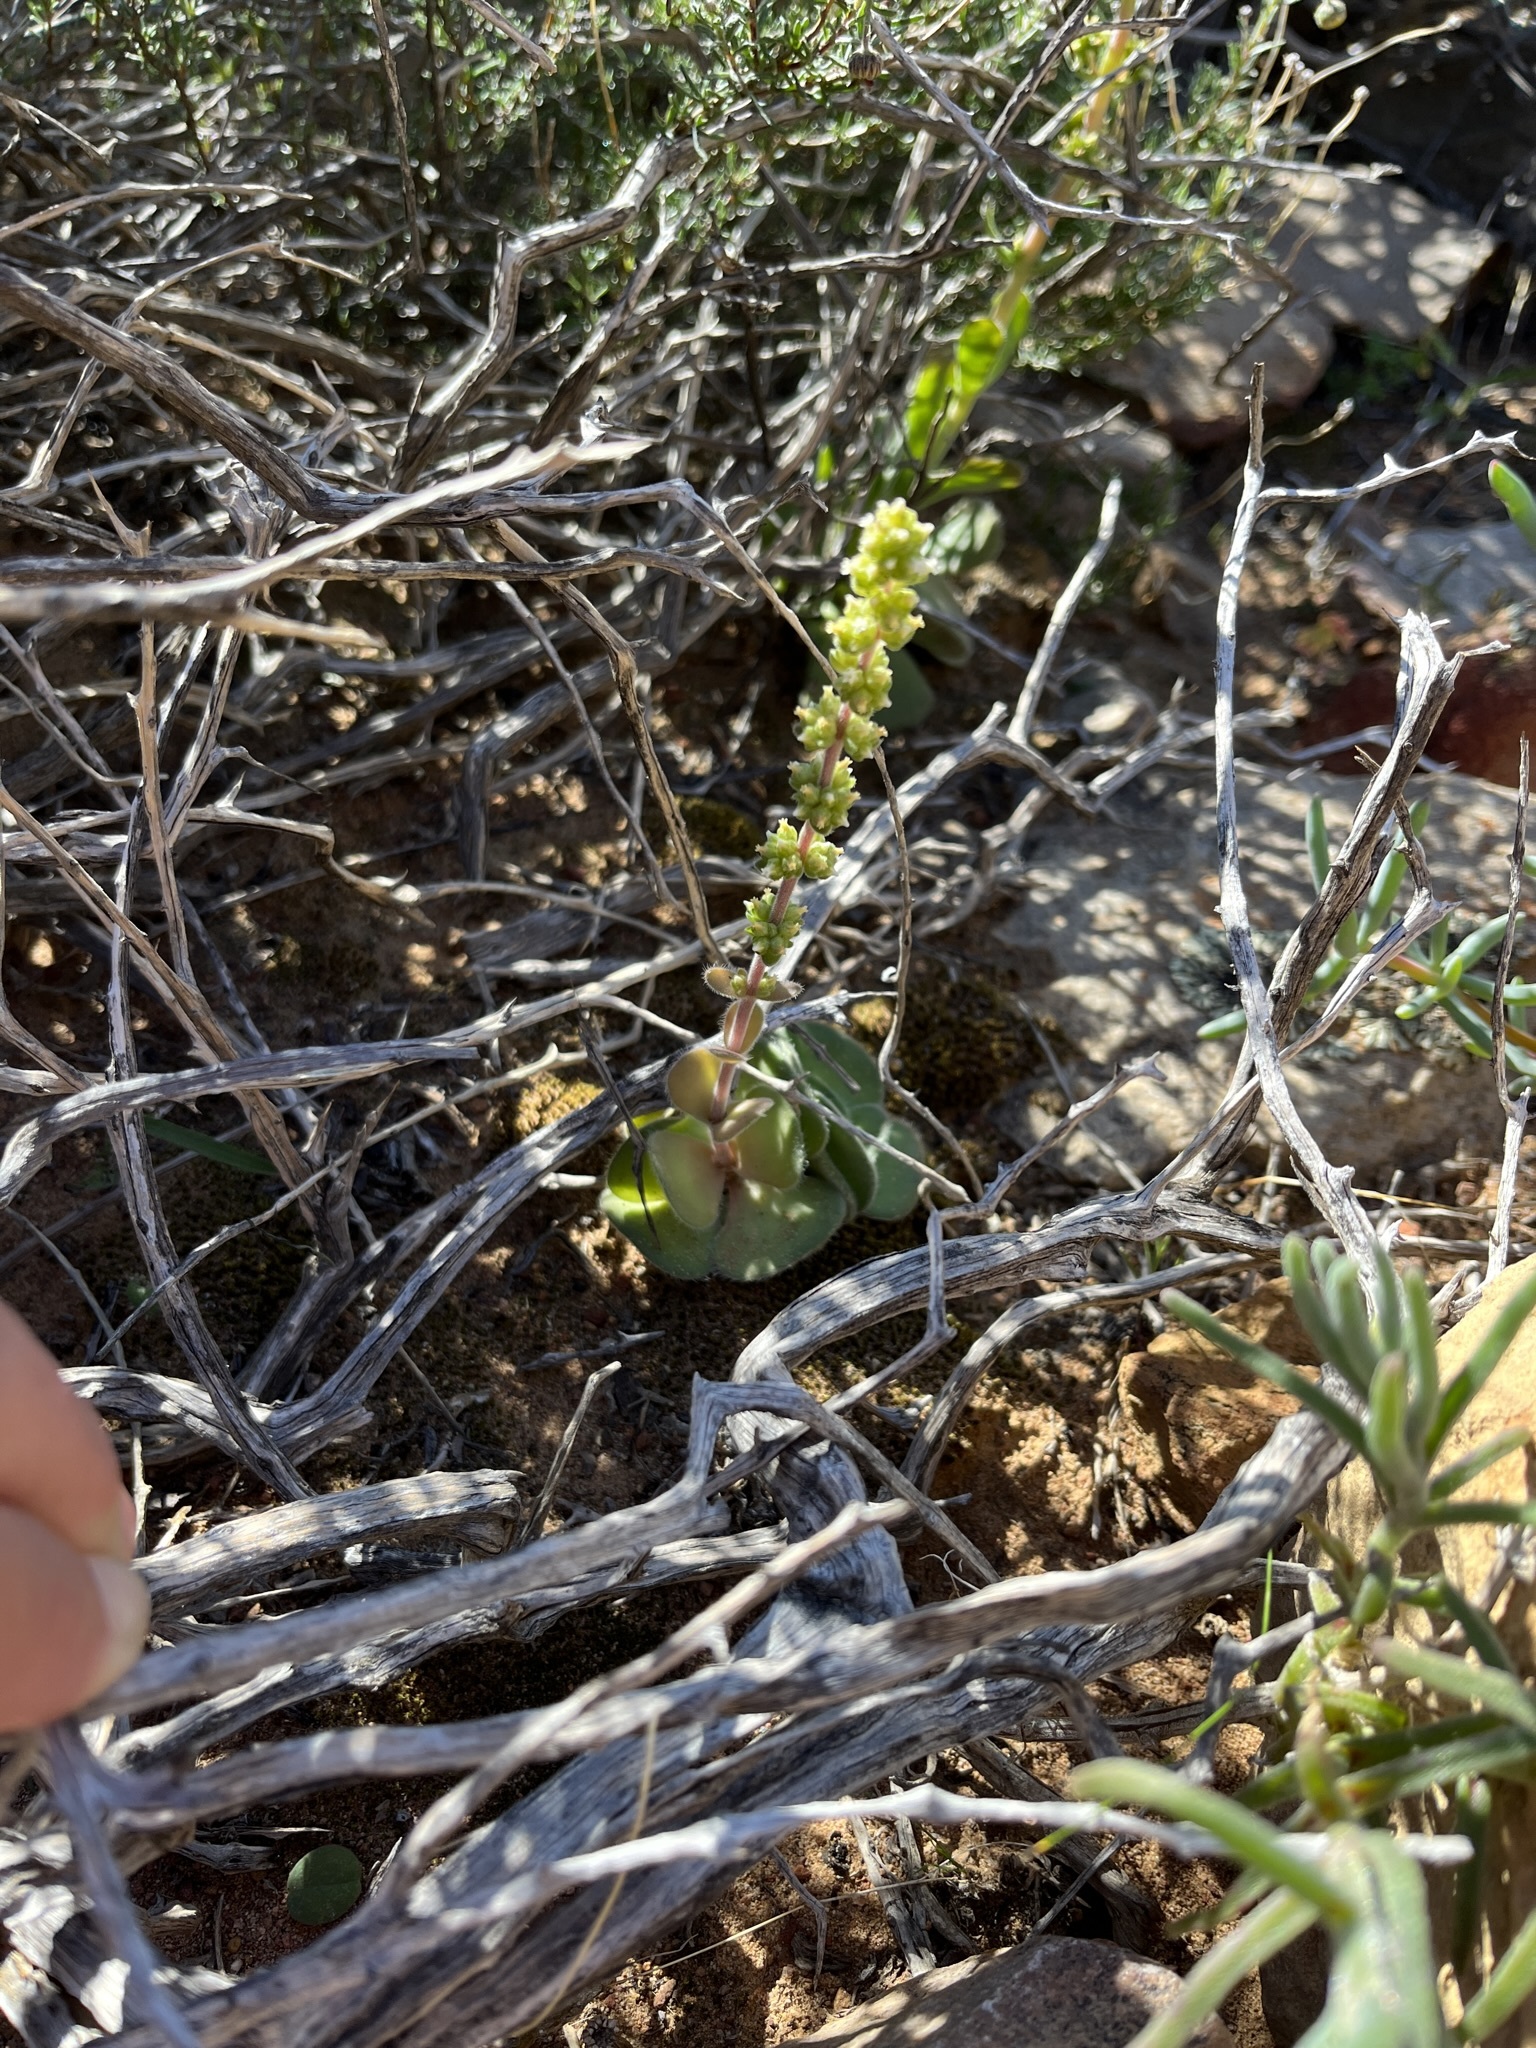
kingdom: Plantae
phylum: Tracheophyta
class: Magnoliopsida
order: Saxifragales
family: Crassulaceae
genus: Crassula
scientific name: Crassula tomentosa
